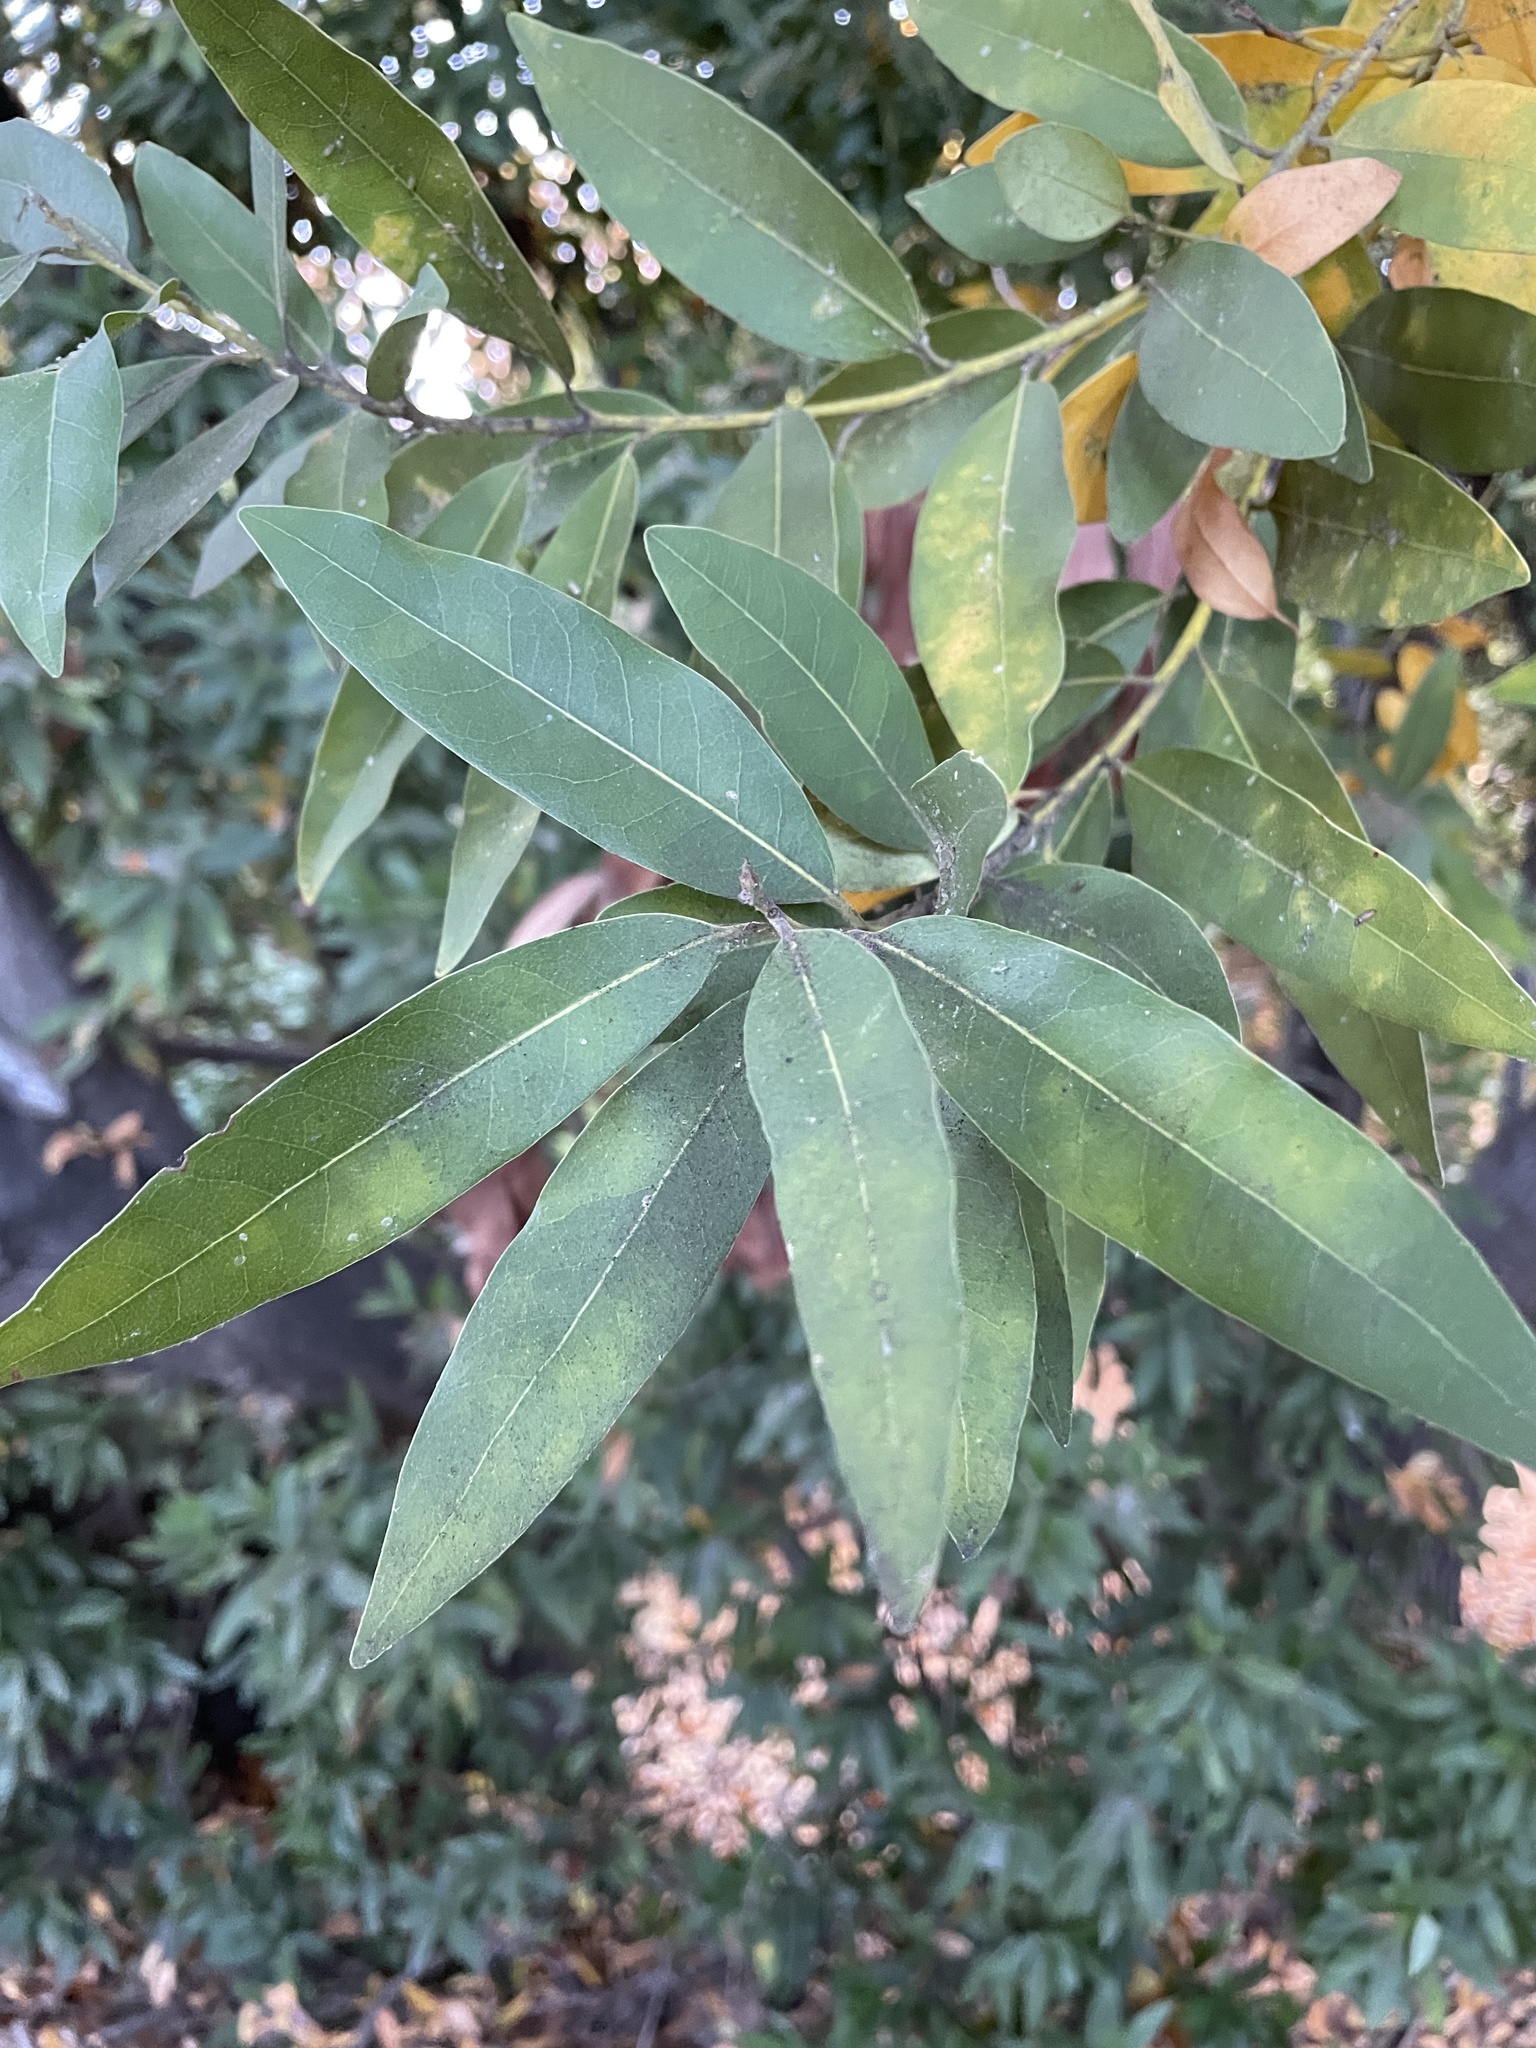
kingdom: Plantae
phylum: Tracheophyta
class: Magnoliopsida
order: Laurales
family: Lauraceae
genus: Umbellularia
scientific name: Umbellularia californica
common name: California bay
